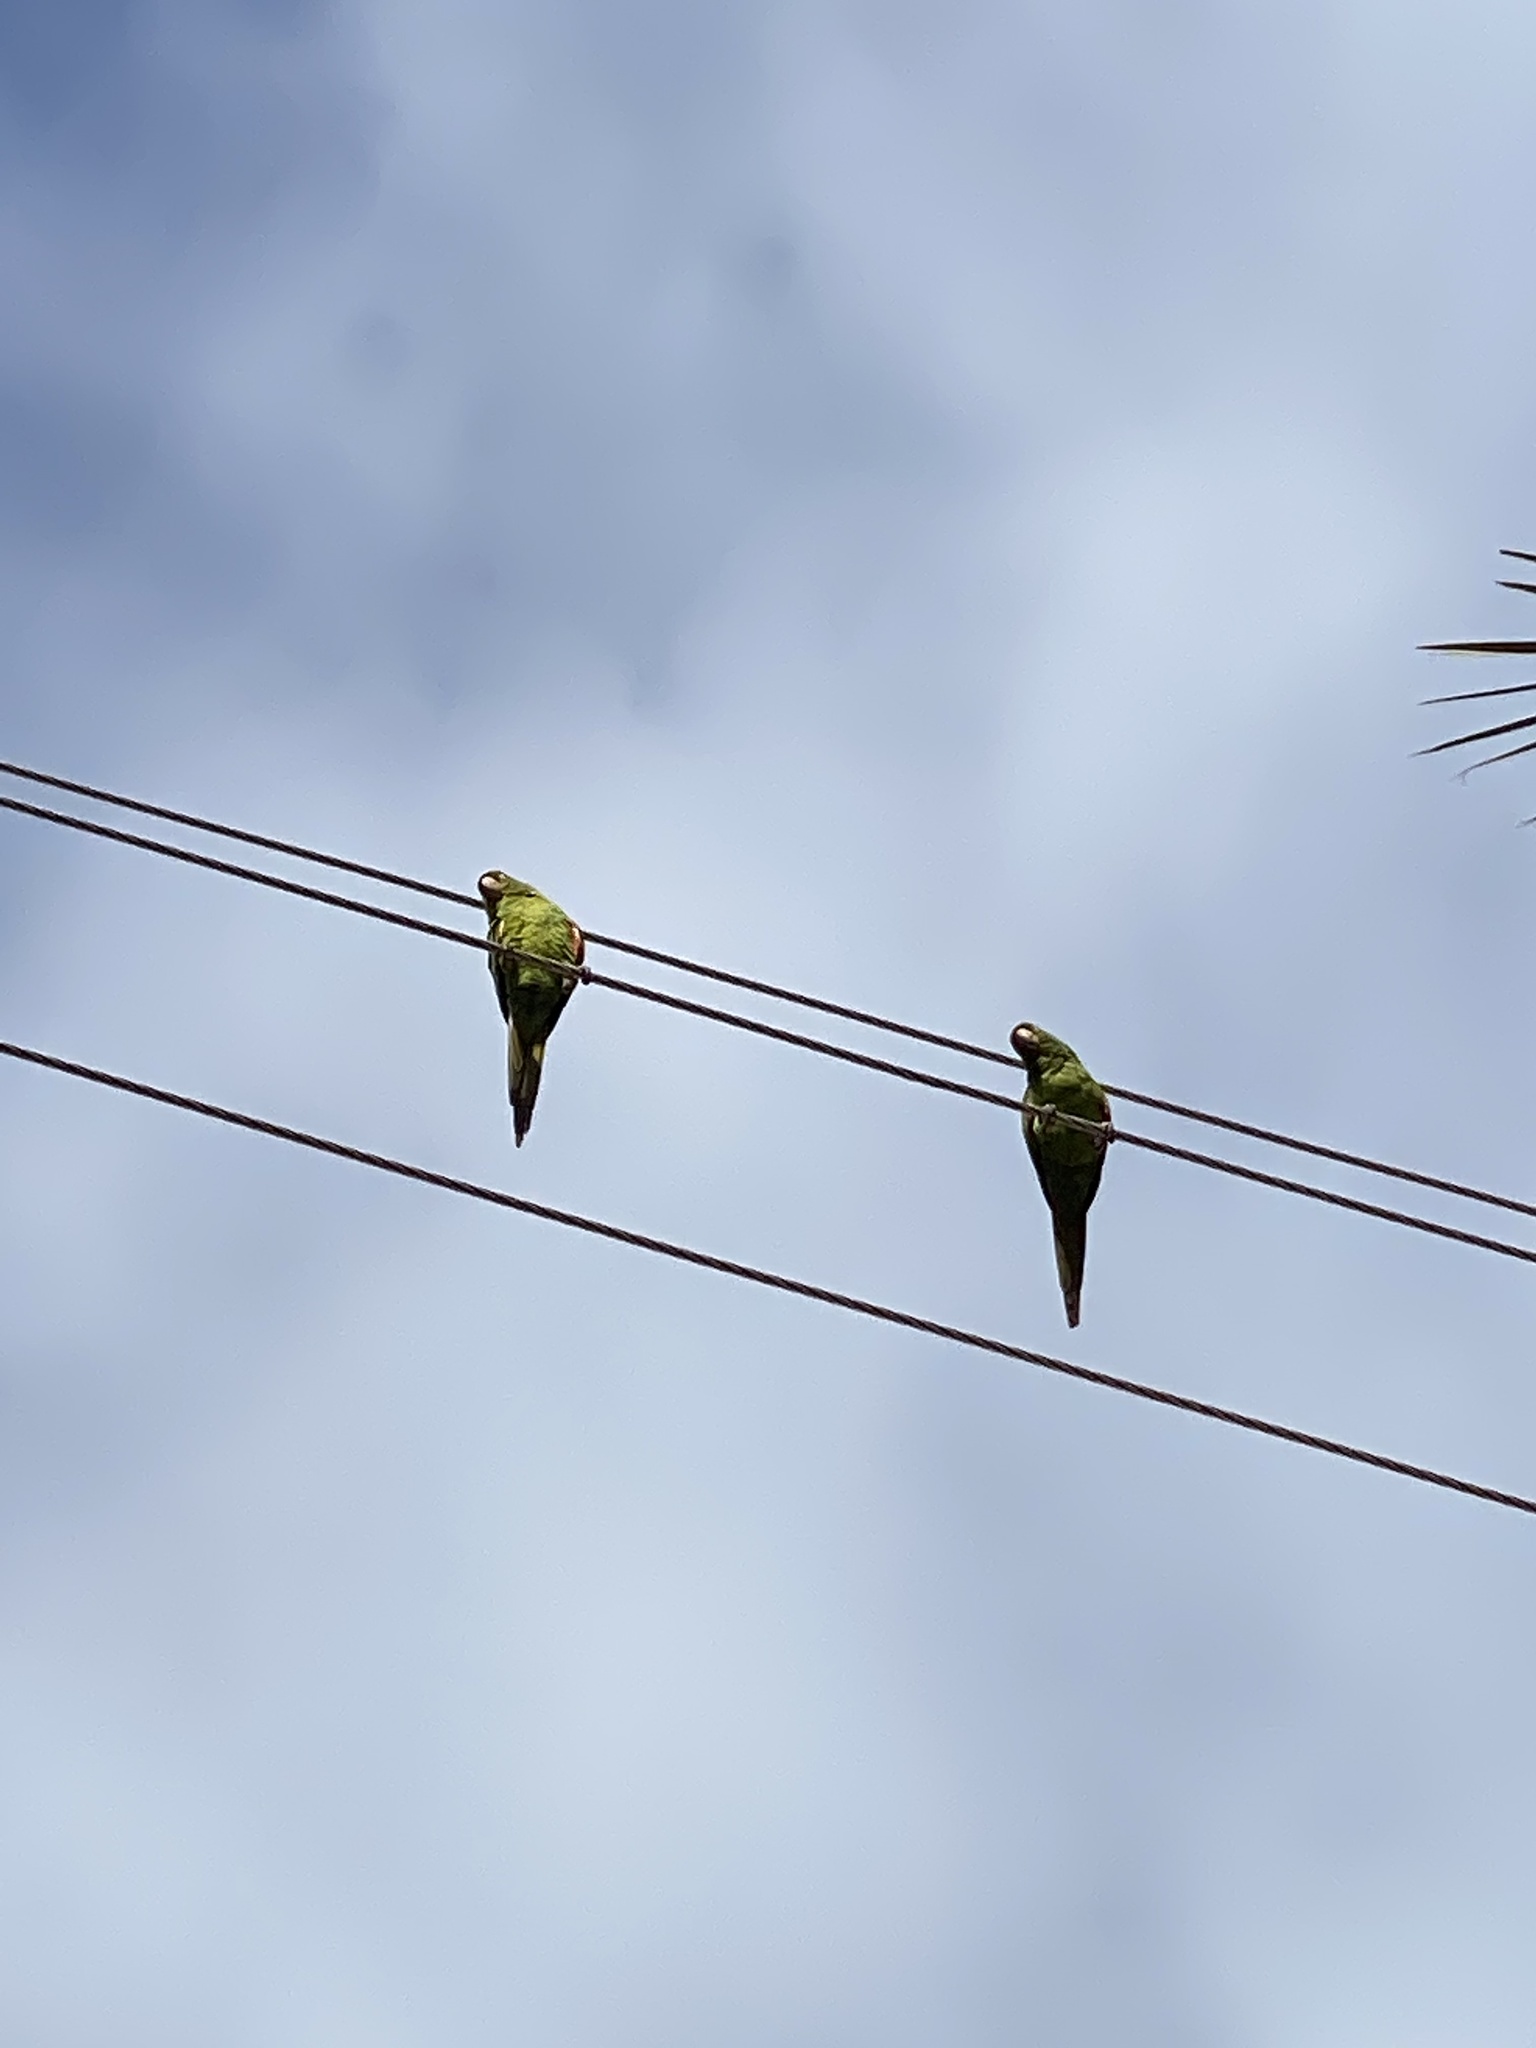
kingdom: Animalia
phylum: Chordata
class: Aves
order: Psittaciformes
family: Psittacidae
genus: Aratinga
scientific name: Aratinga leucophthalma
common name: White-eyed parakeet
